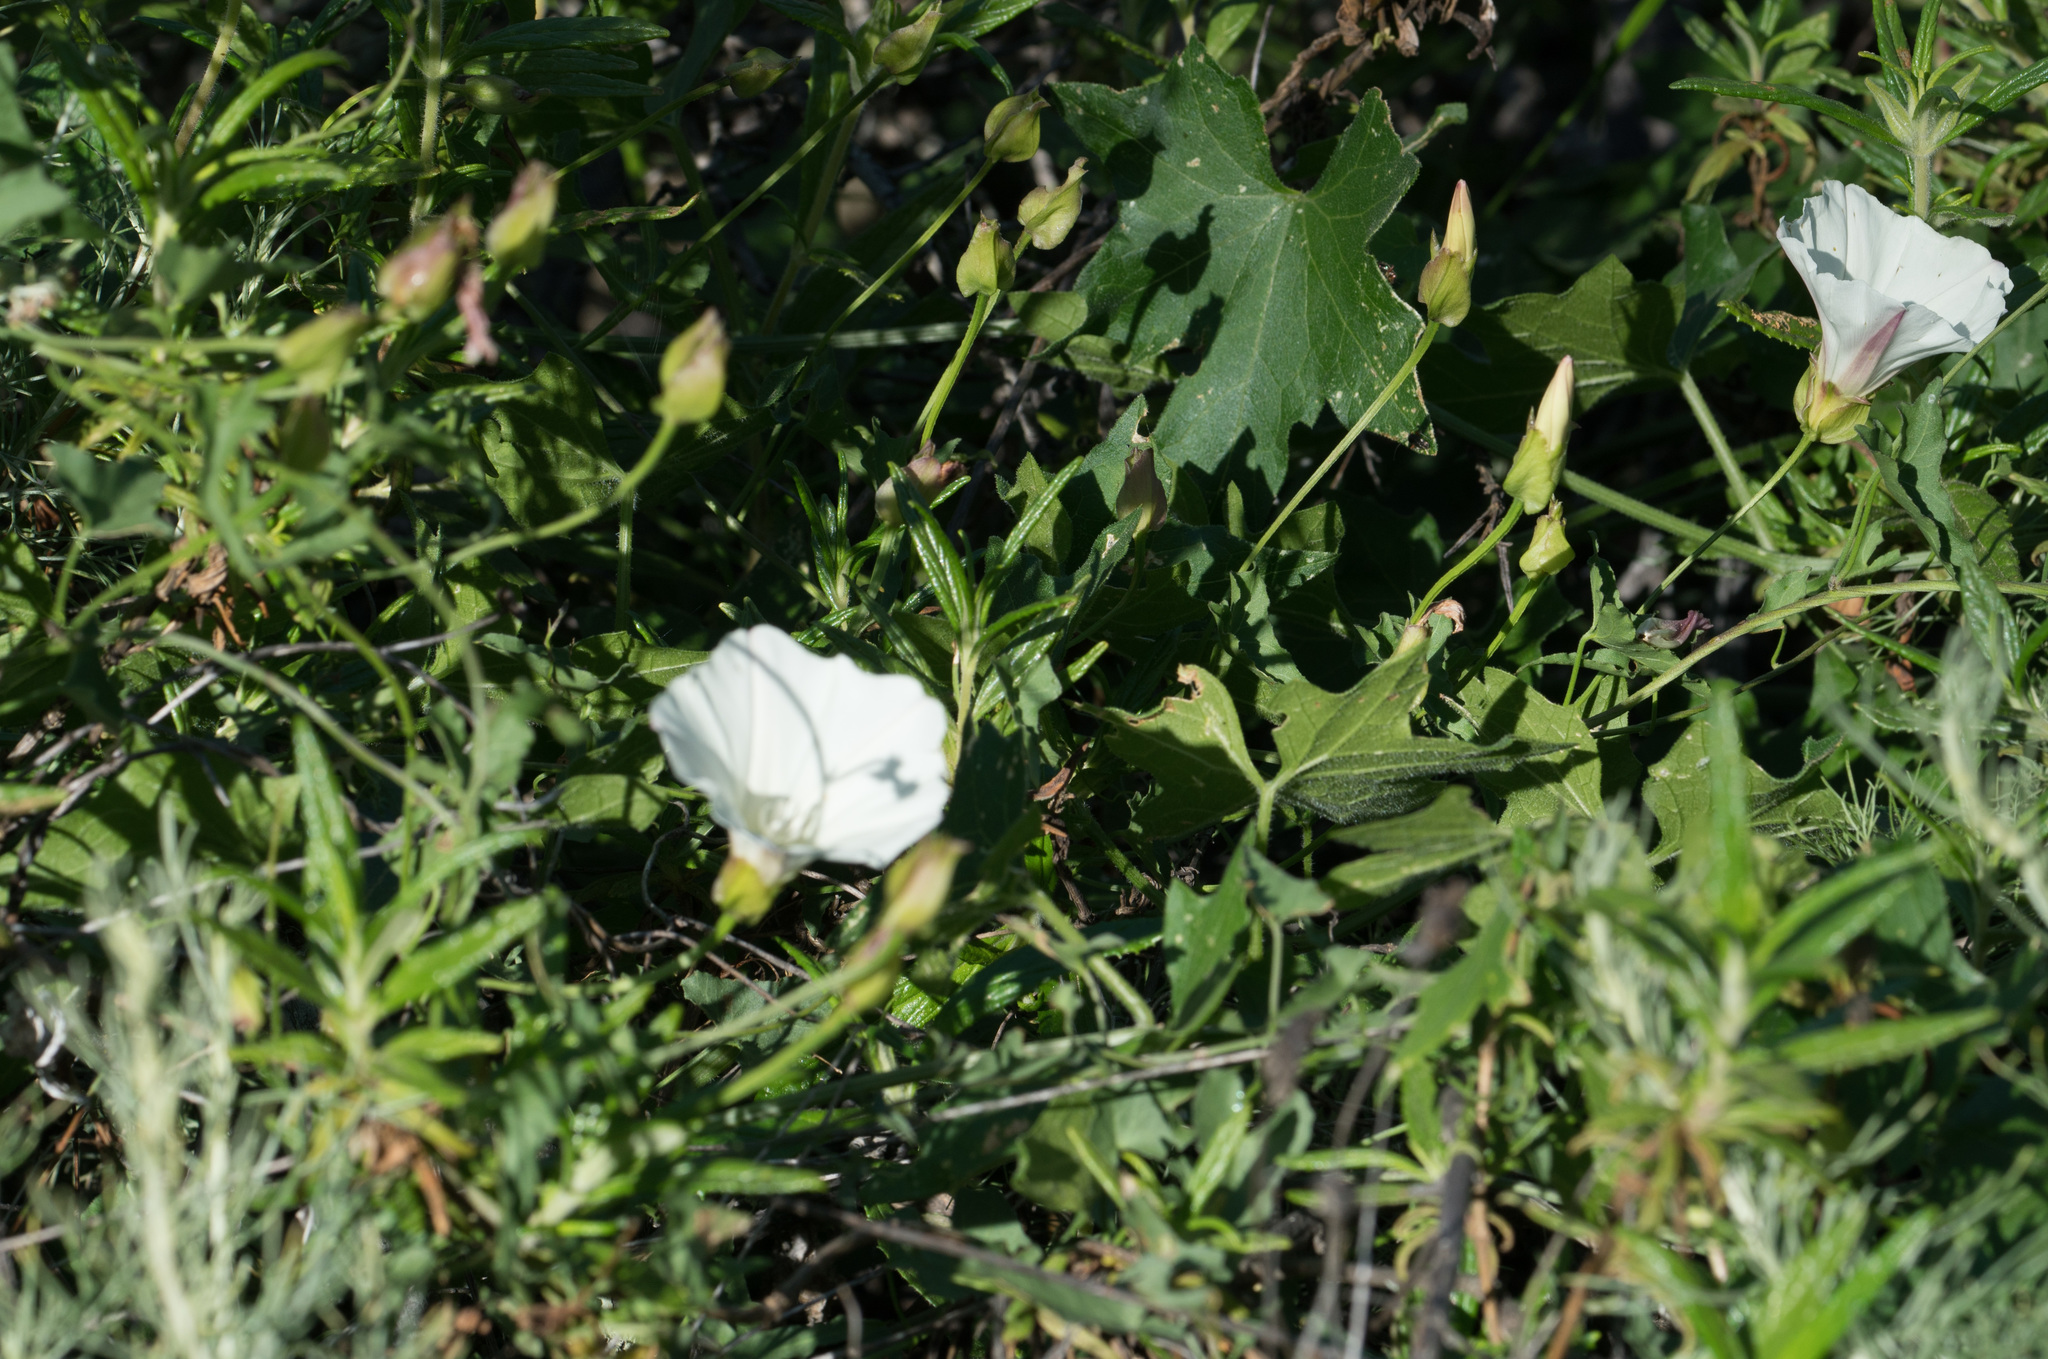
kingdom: Plantae
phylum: Tracheophyta
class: Magnoliopsida
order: Solanales
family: Convolvulaceae
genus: Calystegia
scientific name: Calystegia macrostegia
